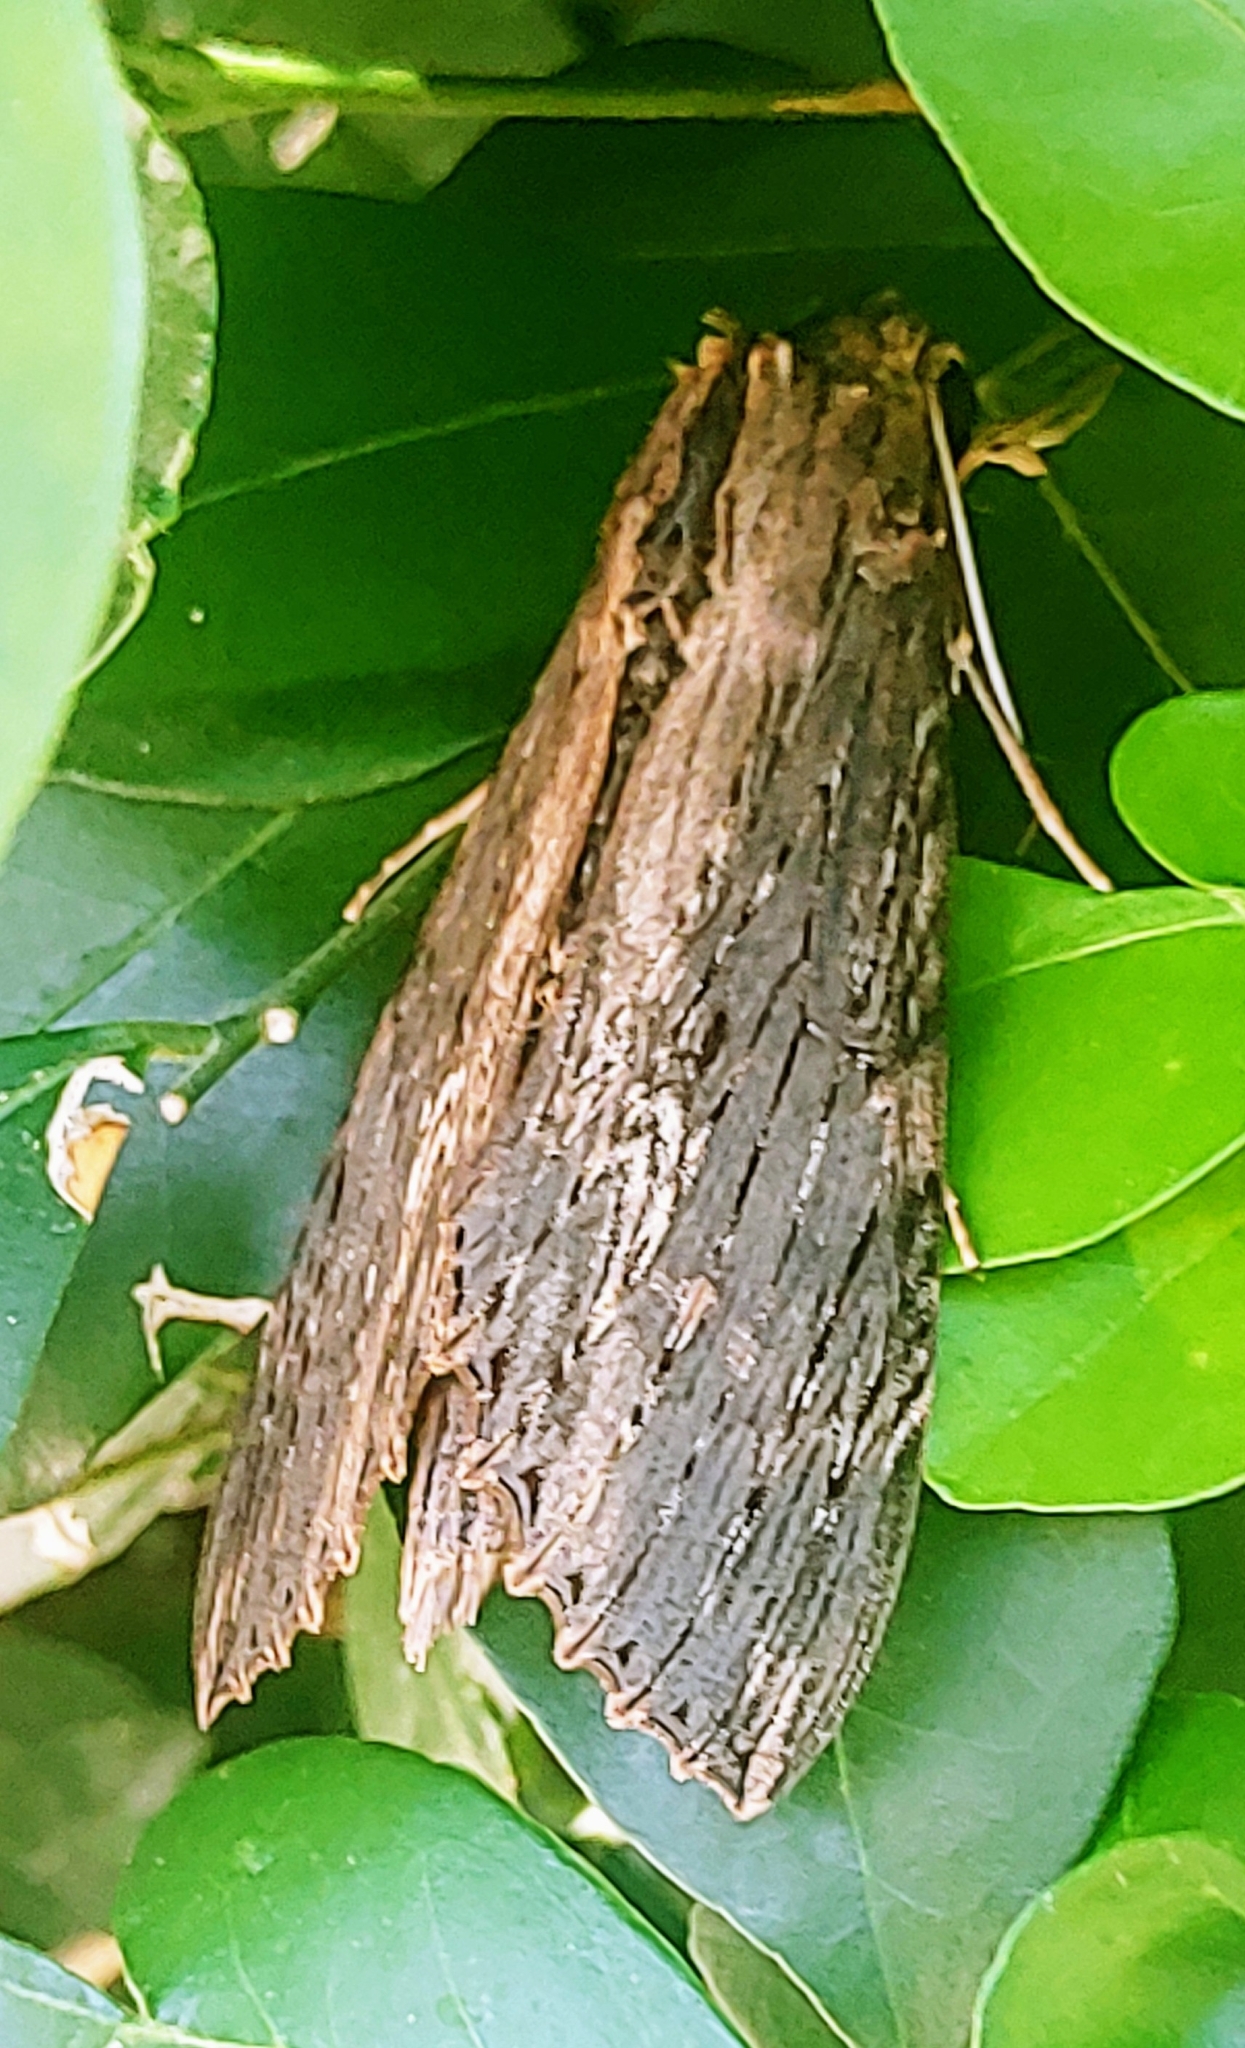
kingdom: Animalia
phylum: Arthropoda
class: Insecta
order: Lepidoptera
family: Sphingidae
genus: Erinnyis
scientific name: Erinnyis alope
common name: Alope sphinx
